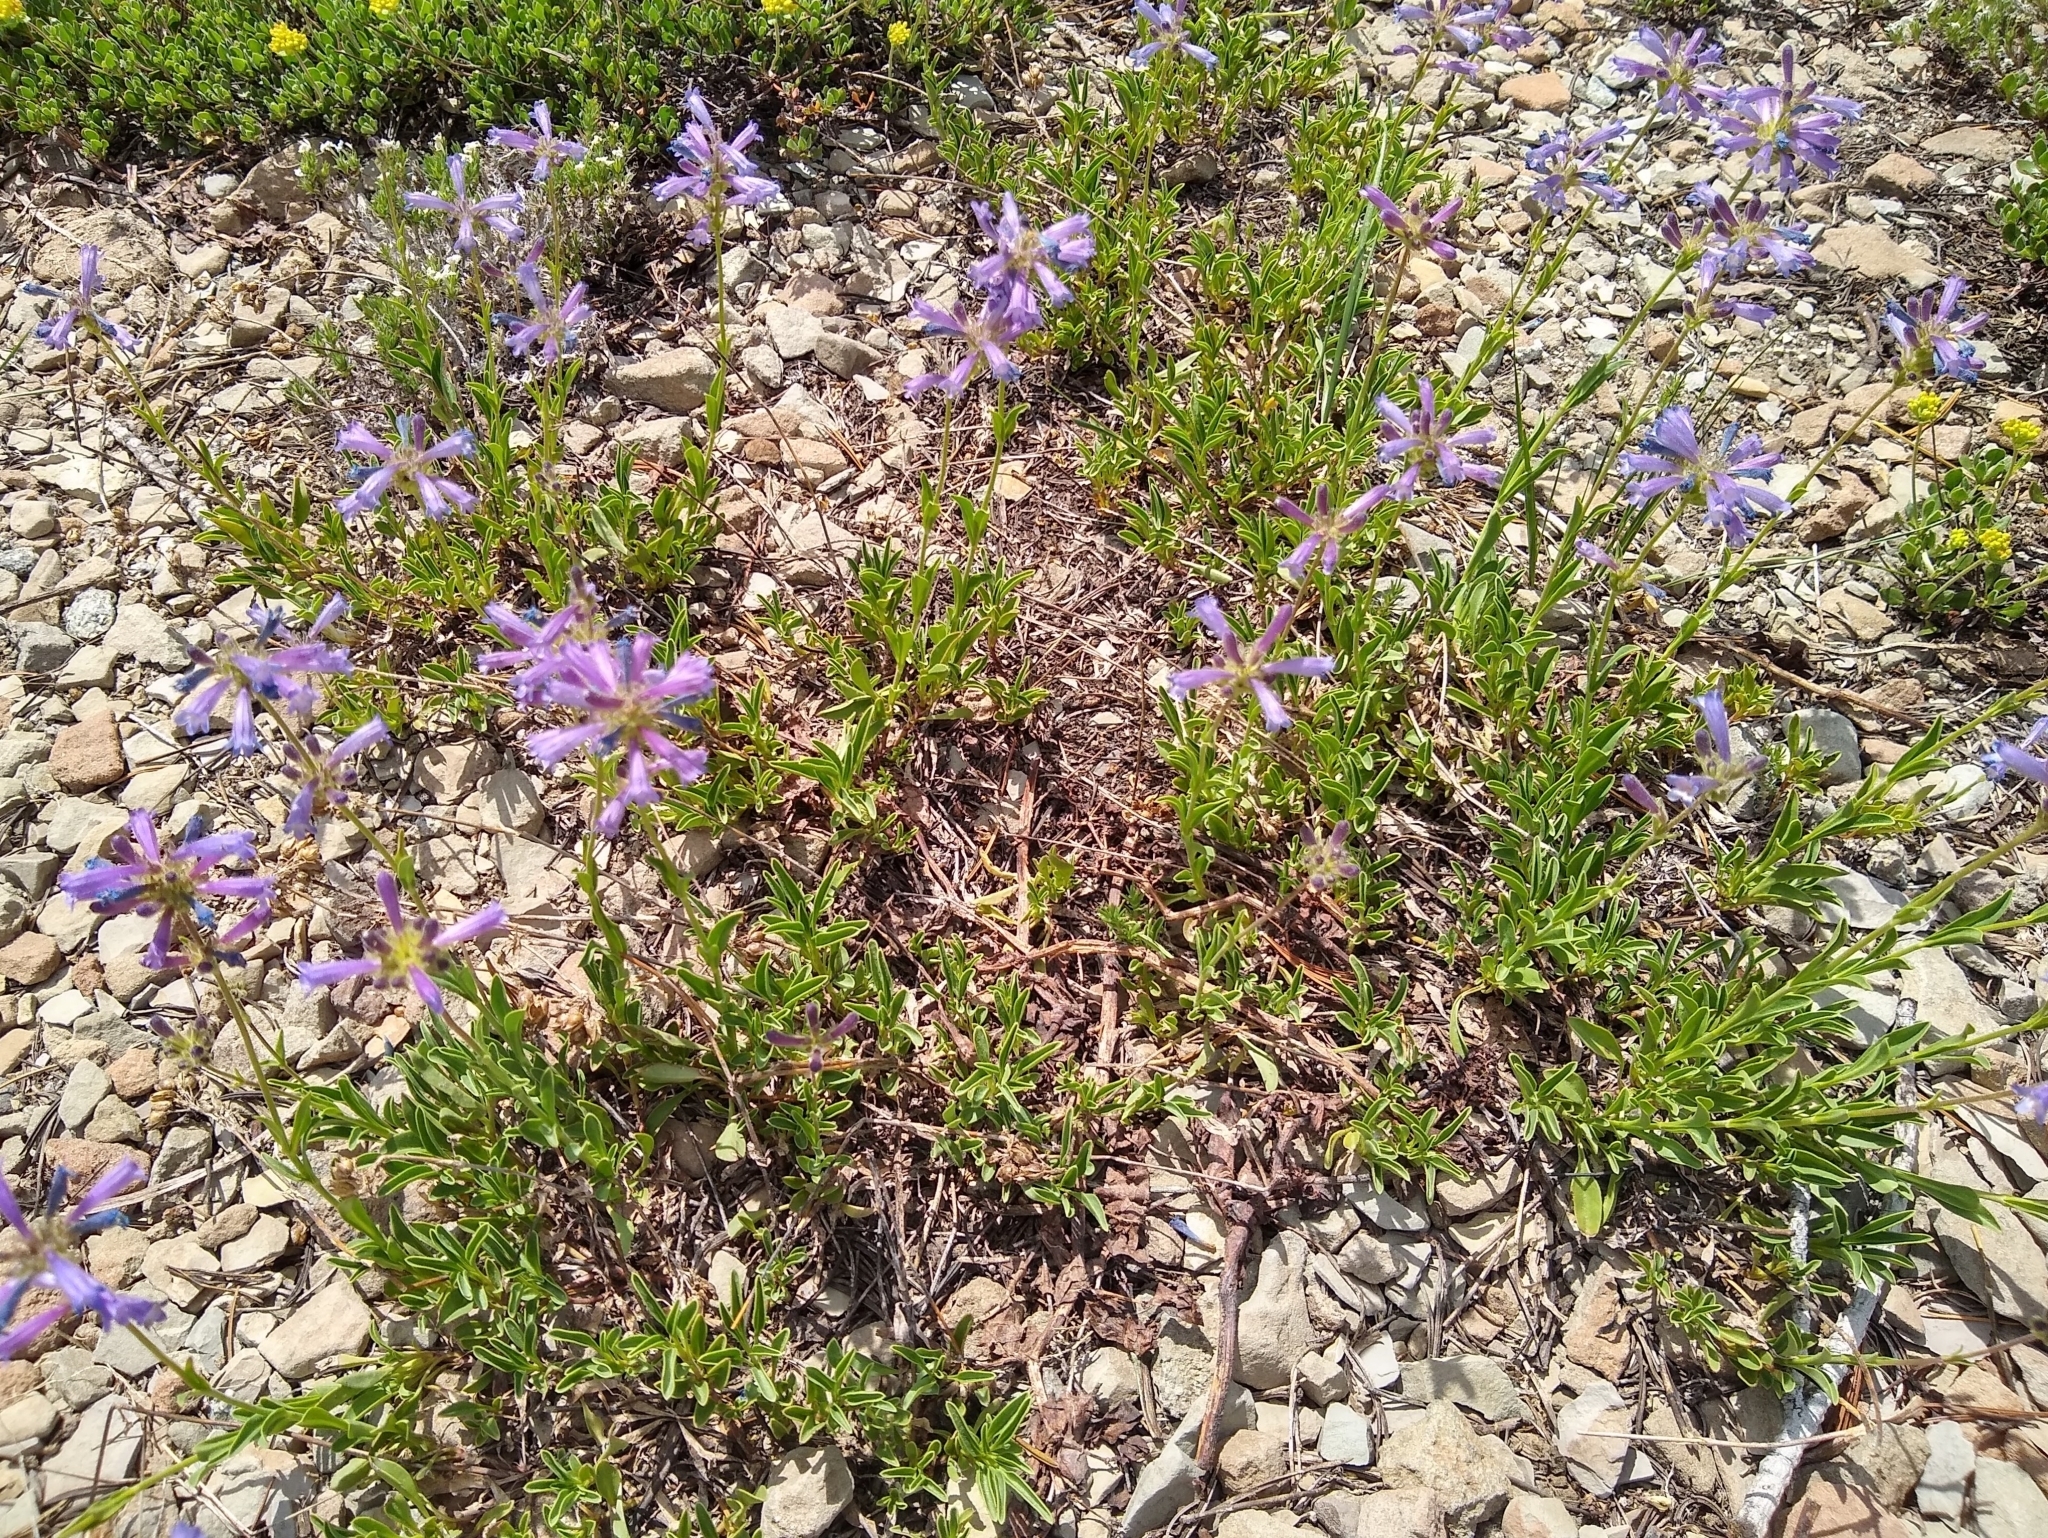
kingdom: Plantae
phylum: Tracheophyta
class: Magnoliopsida
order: Lamiales
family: Plantaginaceae
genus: Penstemon
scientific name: Penstemon heterodoxus
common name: Sierran penstemon
